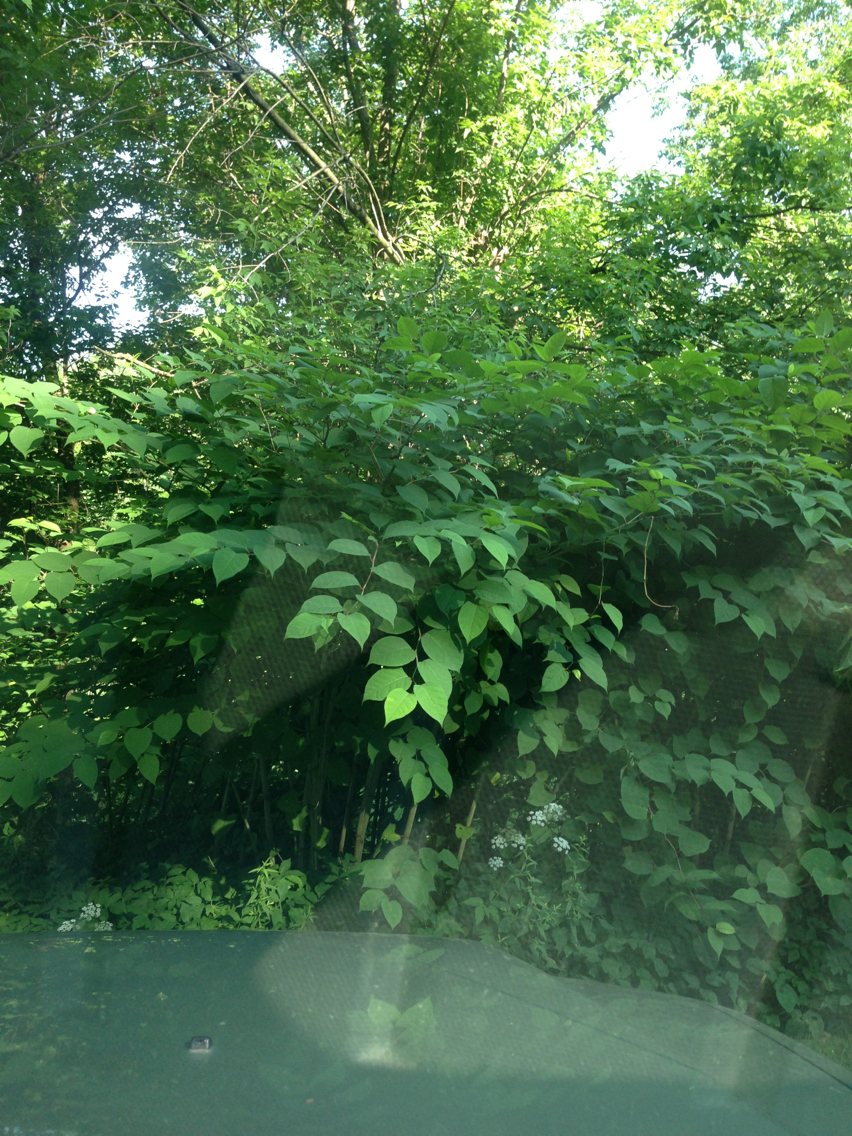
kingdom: Plantae
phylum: Tracheophyta
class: Magnoliopsida
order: Caryophyllales
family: Polygonaceae
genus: Reynoutria
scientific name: Reynoutria japonica
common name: Japanese knotweed
